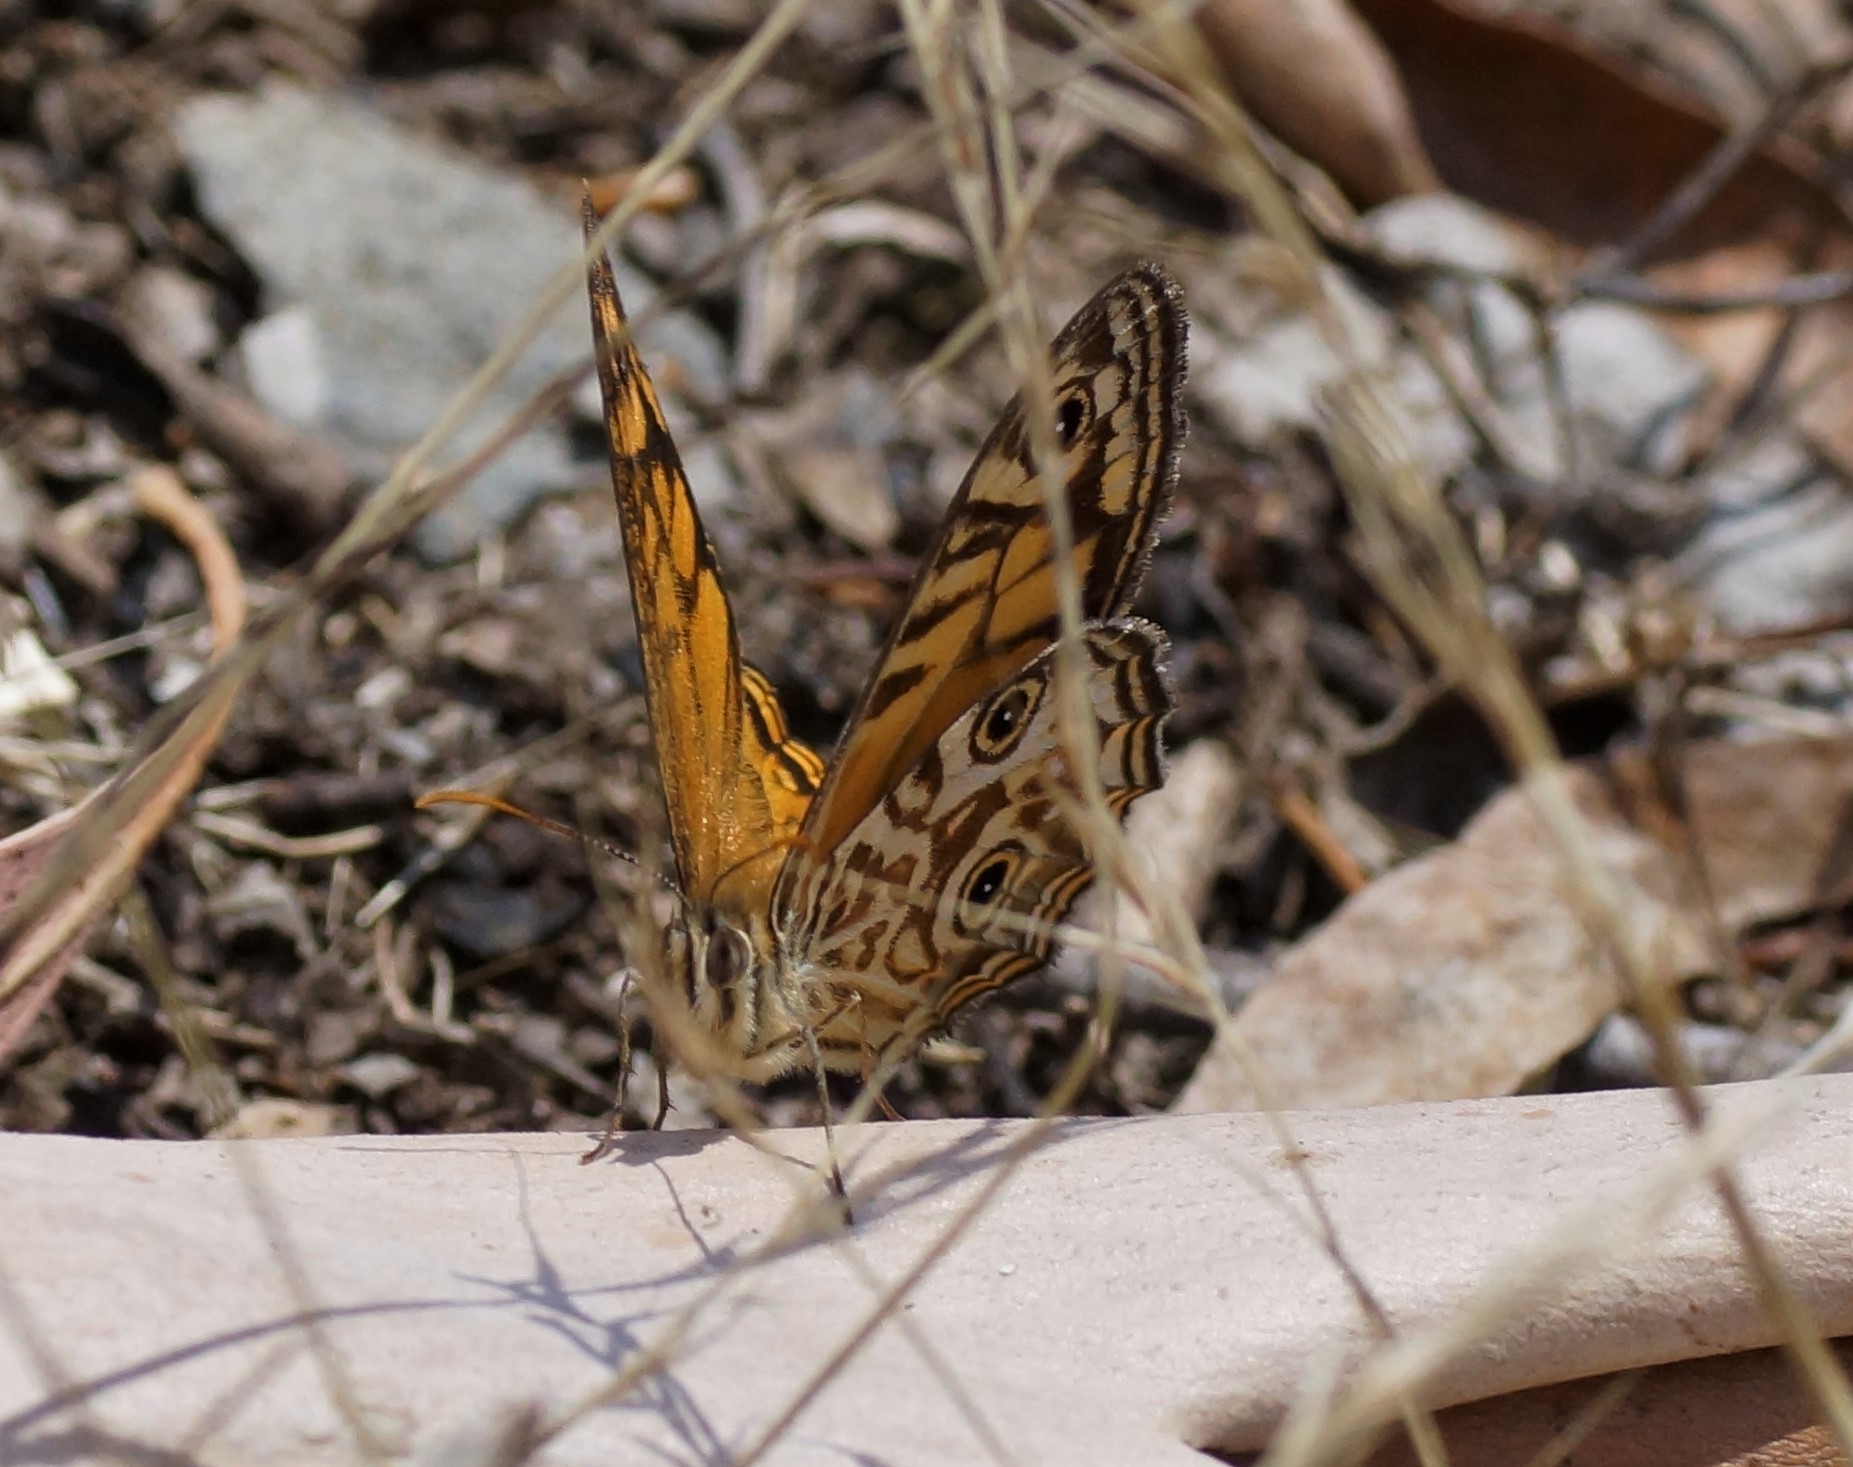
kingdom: Animalia
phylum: Arthropoda
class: Insecta
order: Lepidoptera
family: Nymphalidae
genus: Geitoneura
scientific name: Geitoneura acantha
